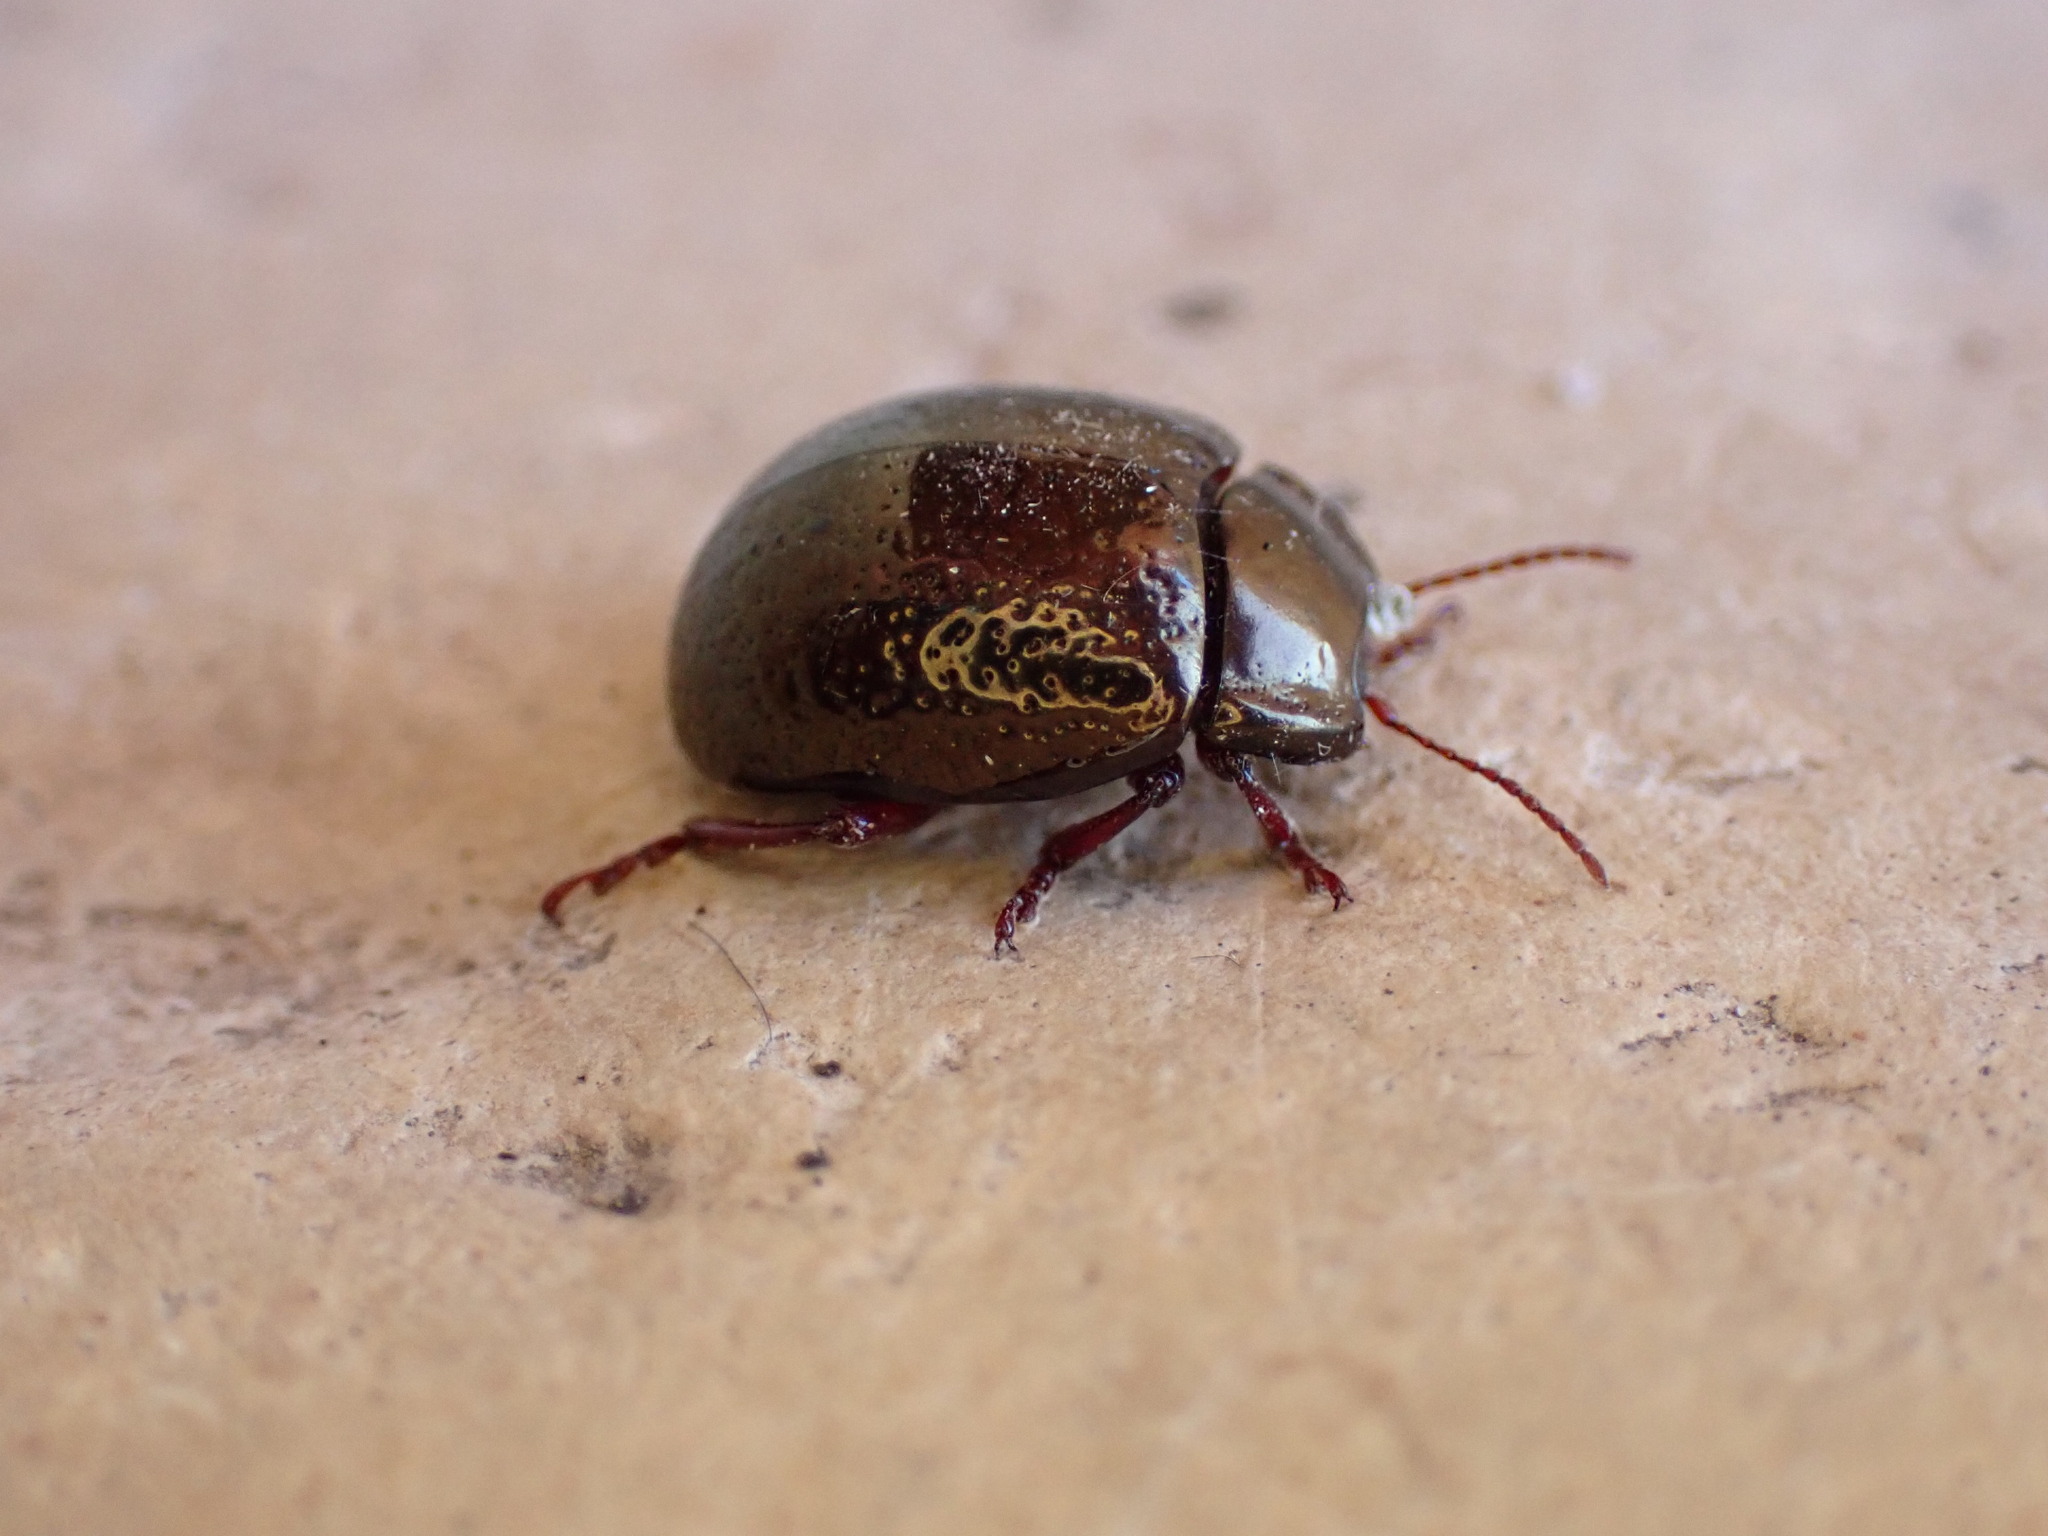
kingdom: Animalia
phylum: Arthropoda
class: Insecta
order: Coleoptera
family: Chrysomelidae
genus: Chrysolina
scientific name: Chrysolina bankii
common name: Leaf beetle
